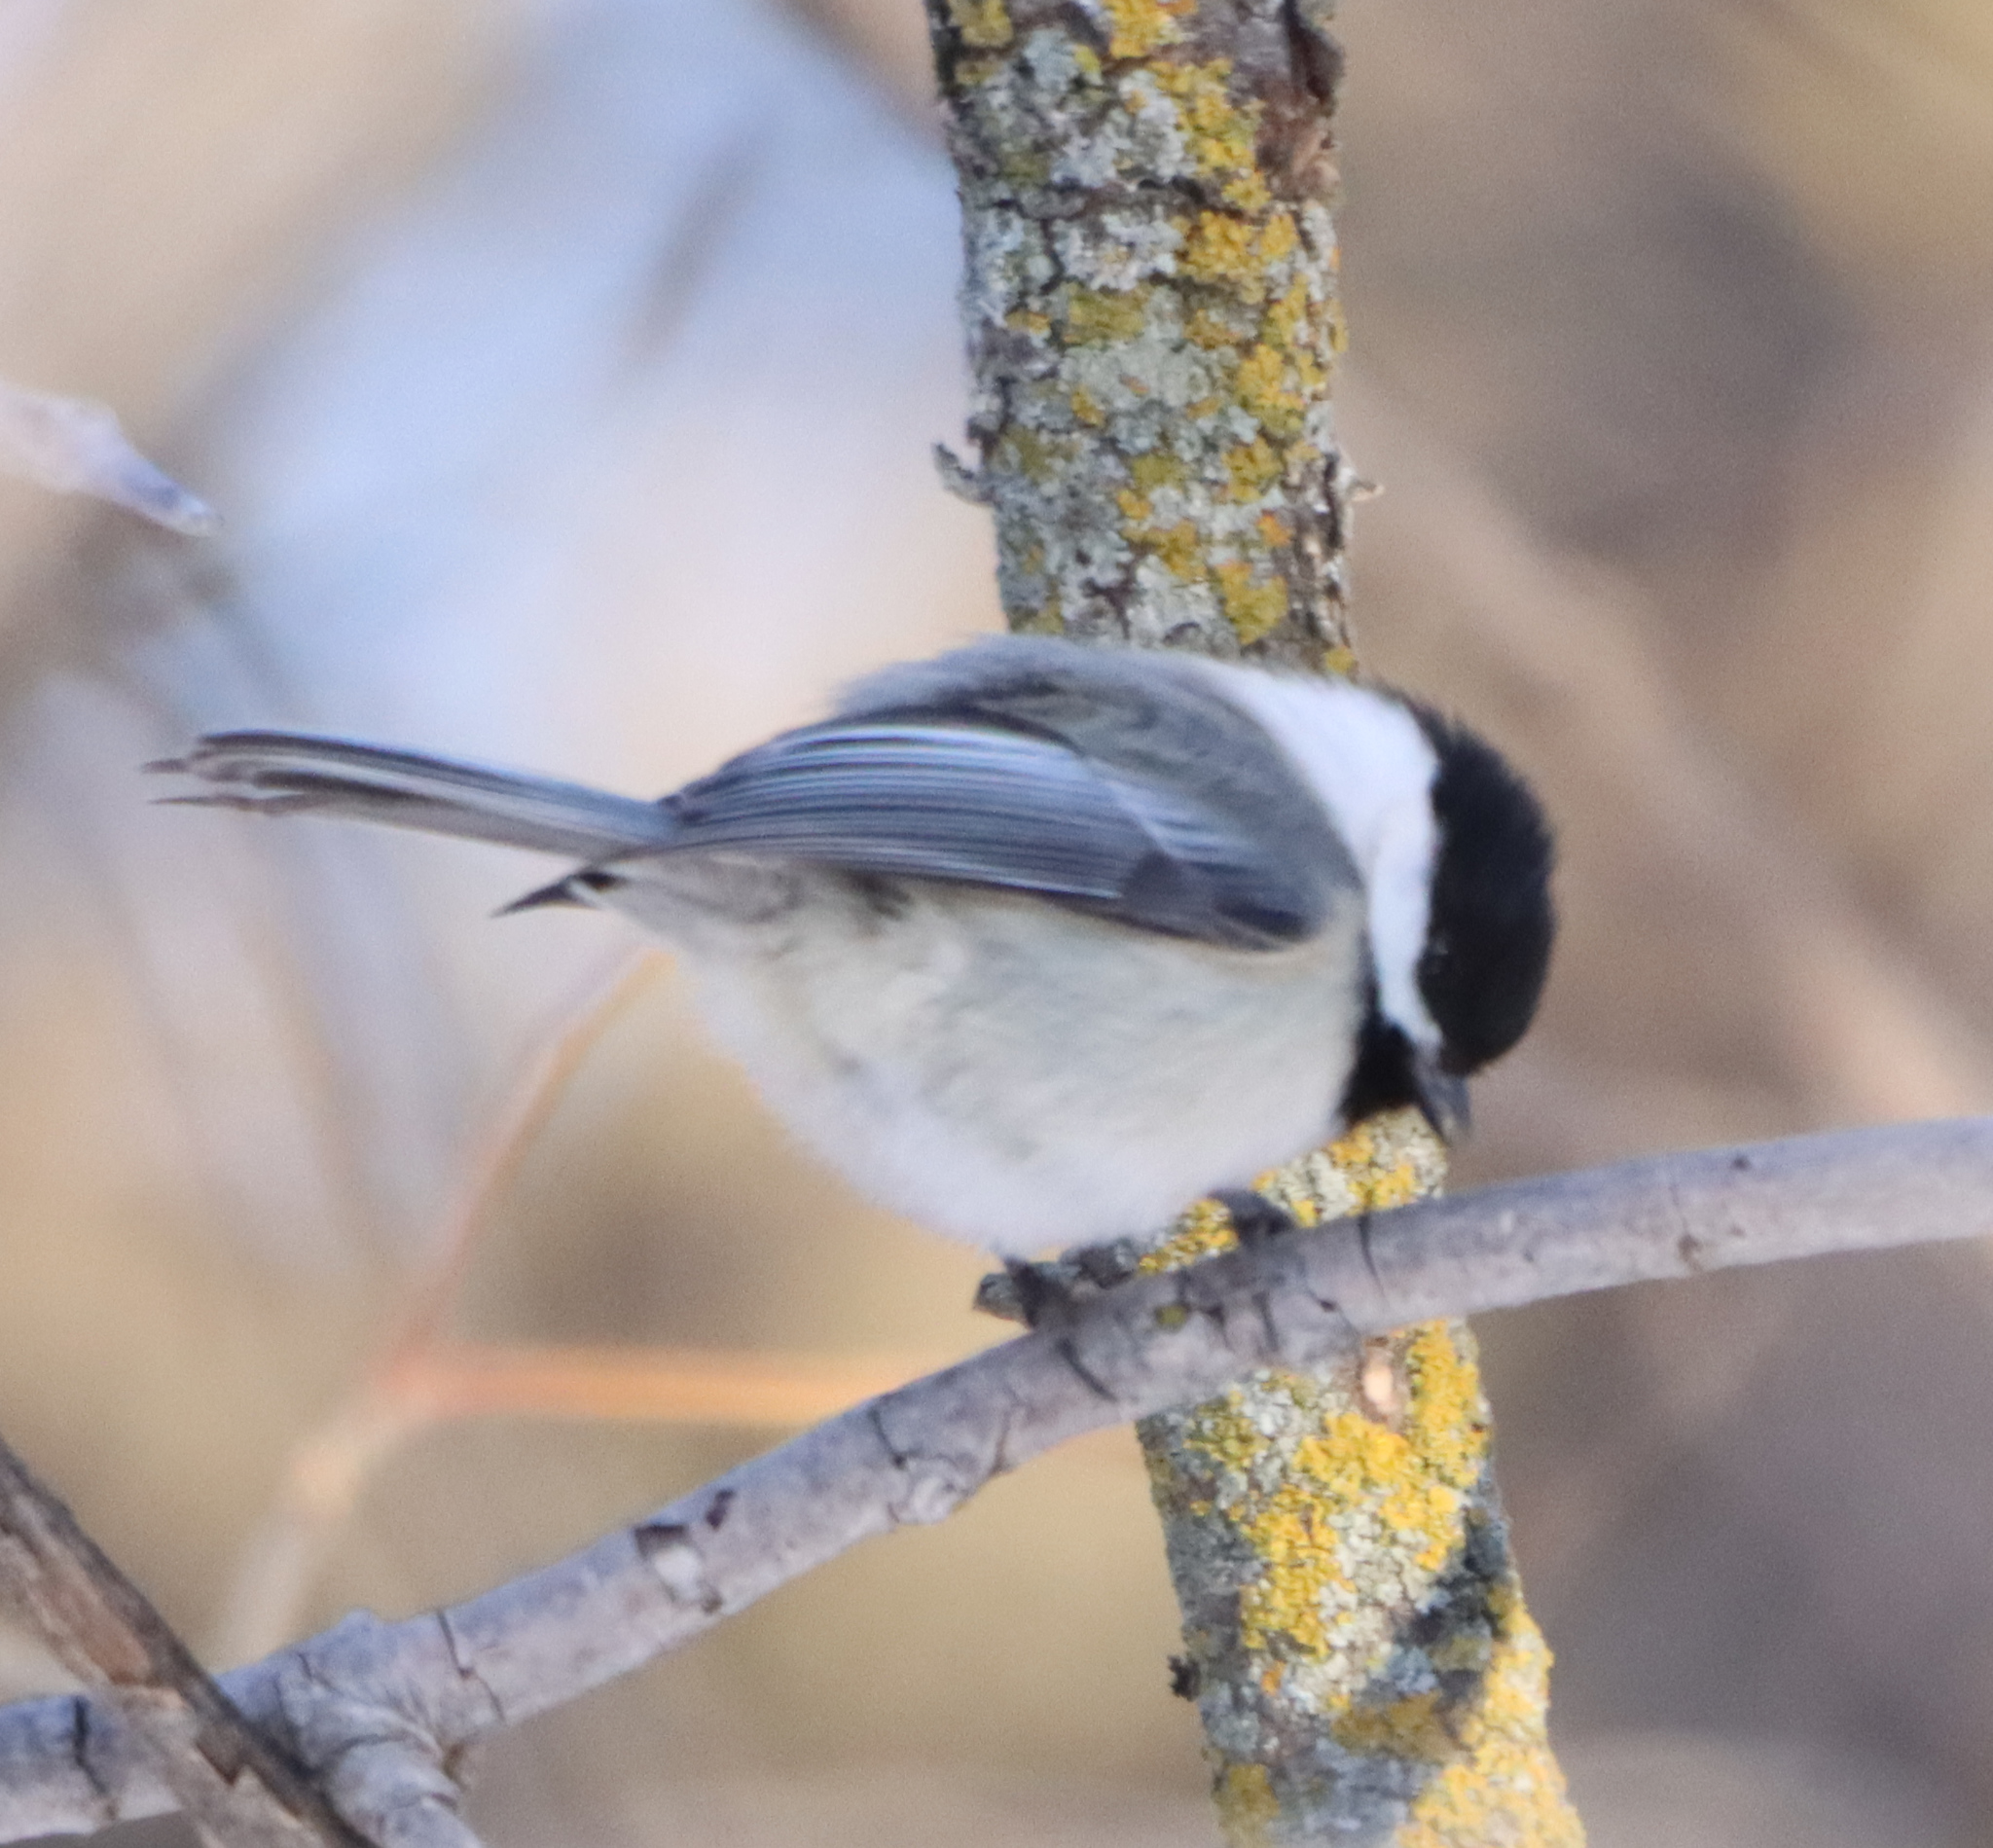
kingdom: Animalia
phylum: Chordata
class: Aves
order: Passeriformes
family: Paridae
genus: Poecile
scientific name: Poecile atricapillus
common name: Black-capped chickadee
